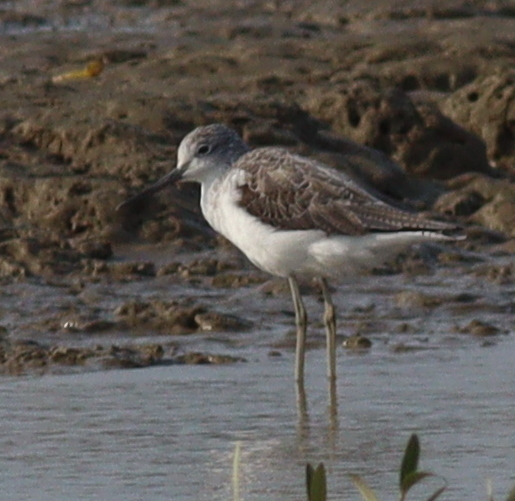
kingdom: Animalia
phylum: Chordata
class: Aves
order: Charadriiformes
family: Scolopacidae
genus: Tringa
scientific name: Tringa nebularia
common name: Common greenshank
